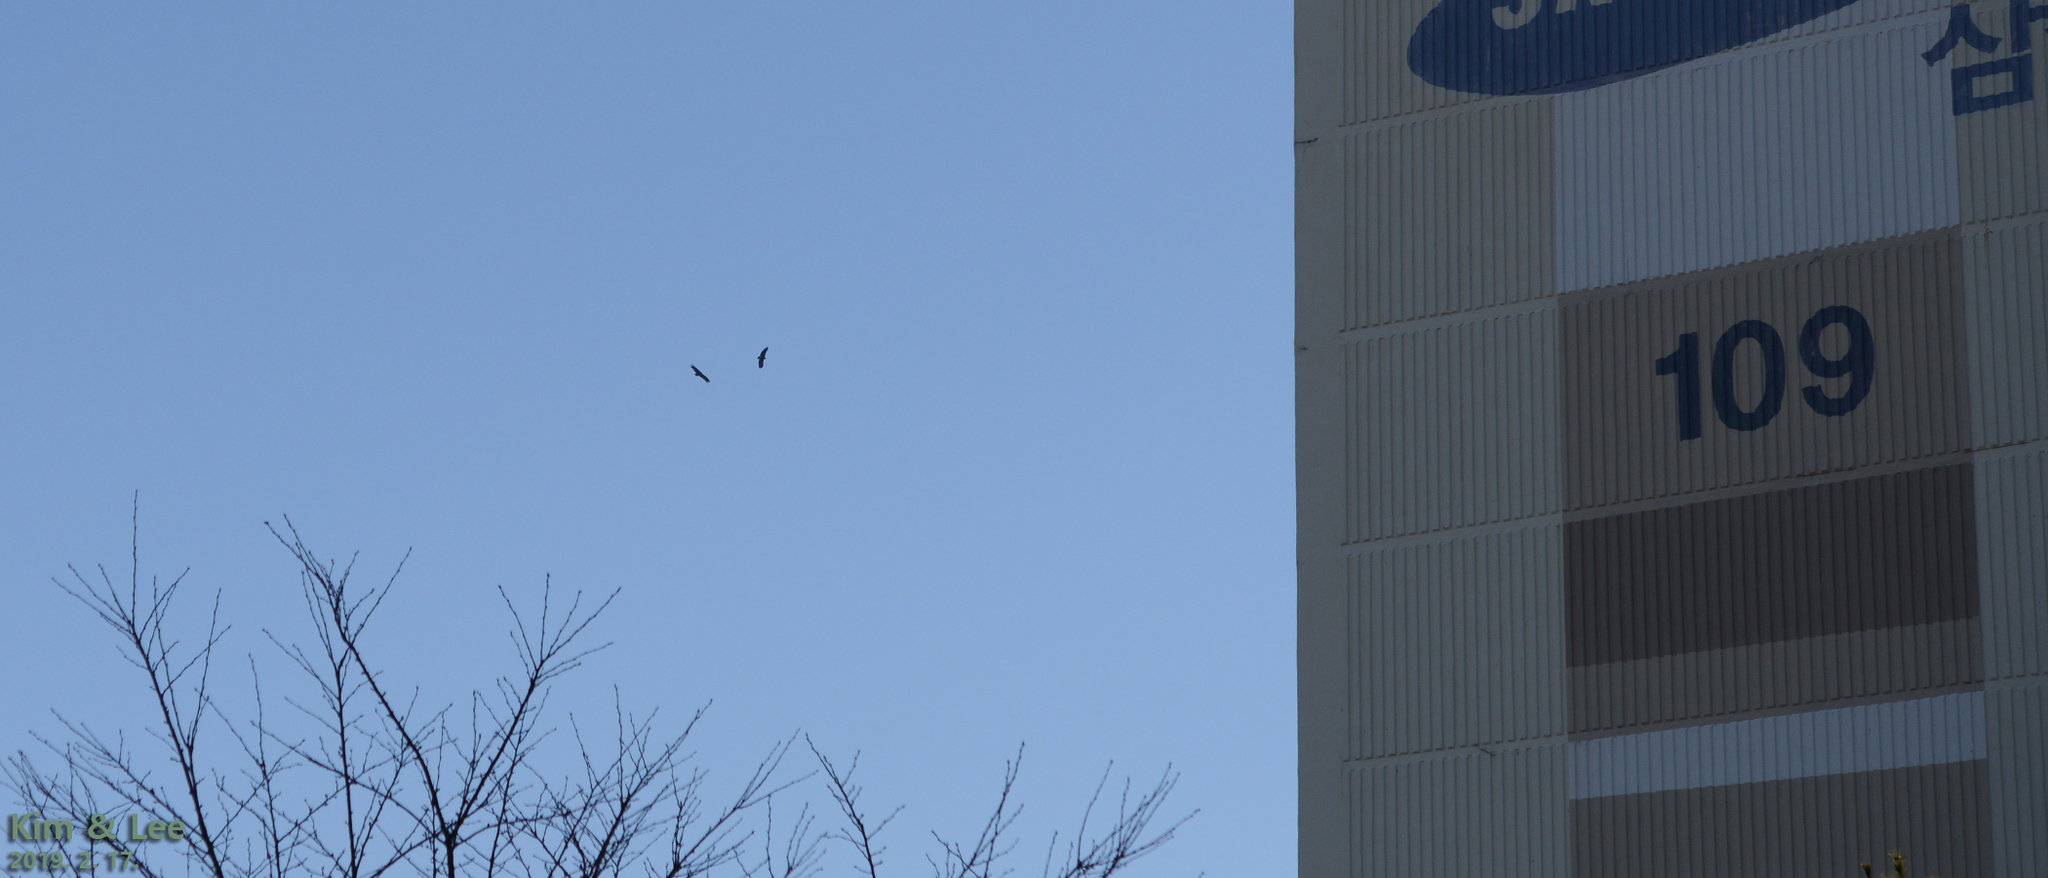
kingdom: Animalia
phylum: Chordata
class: Aves
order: Accipitriformes
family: Accipitridae
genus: Aegypius
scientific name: Aegypius monachus
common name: Cinereous vulture
